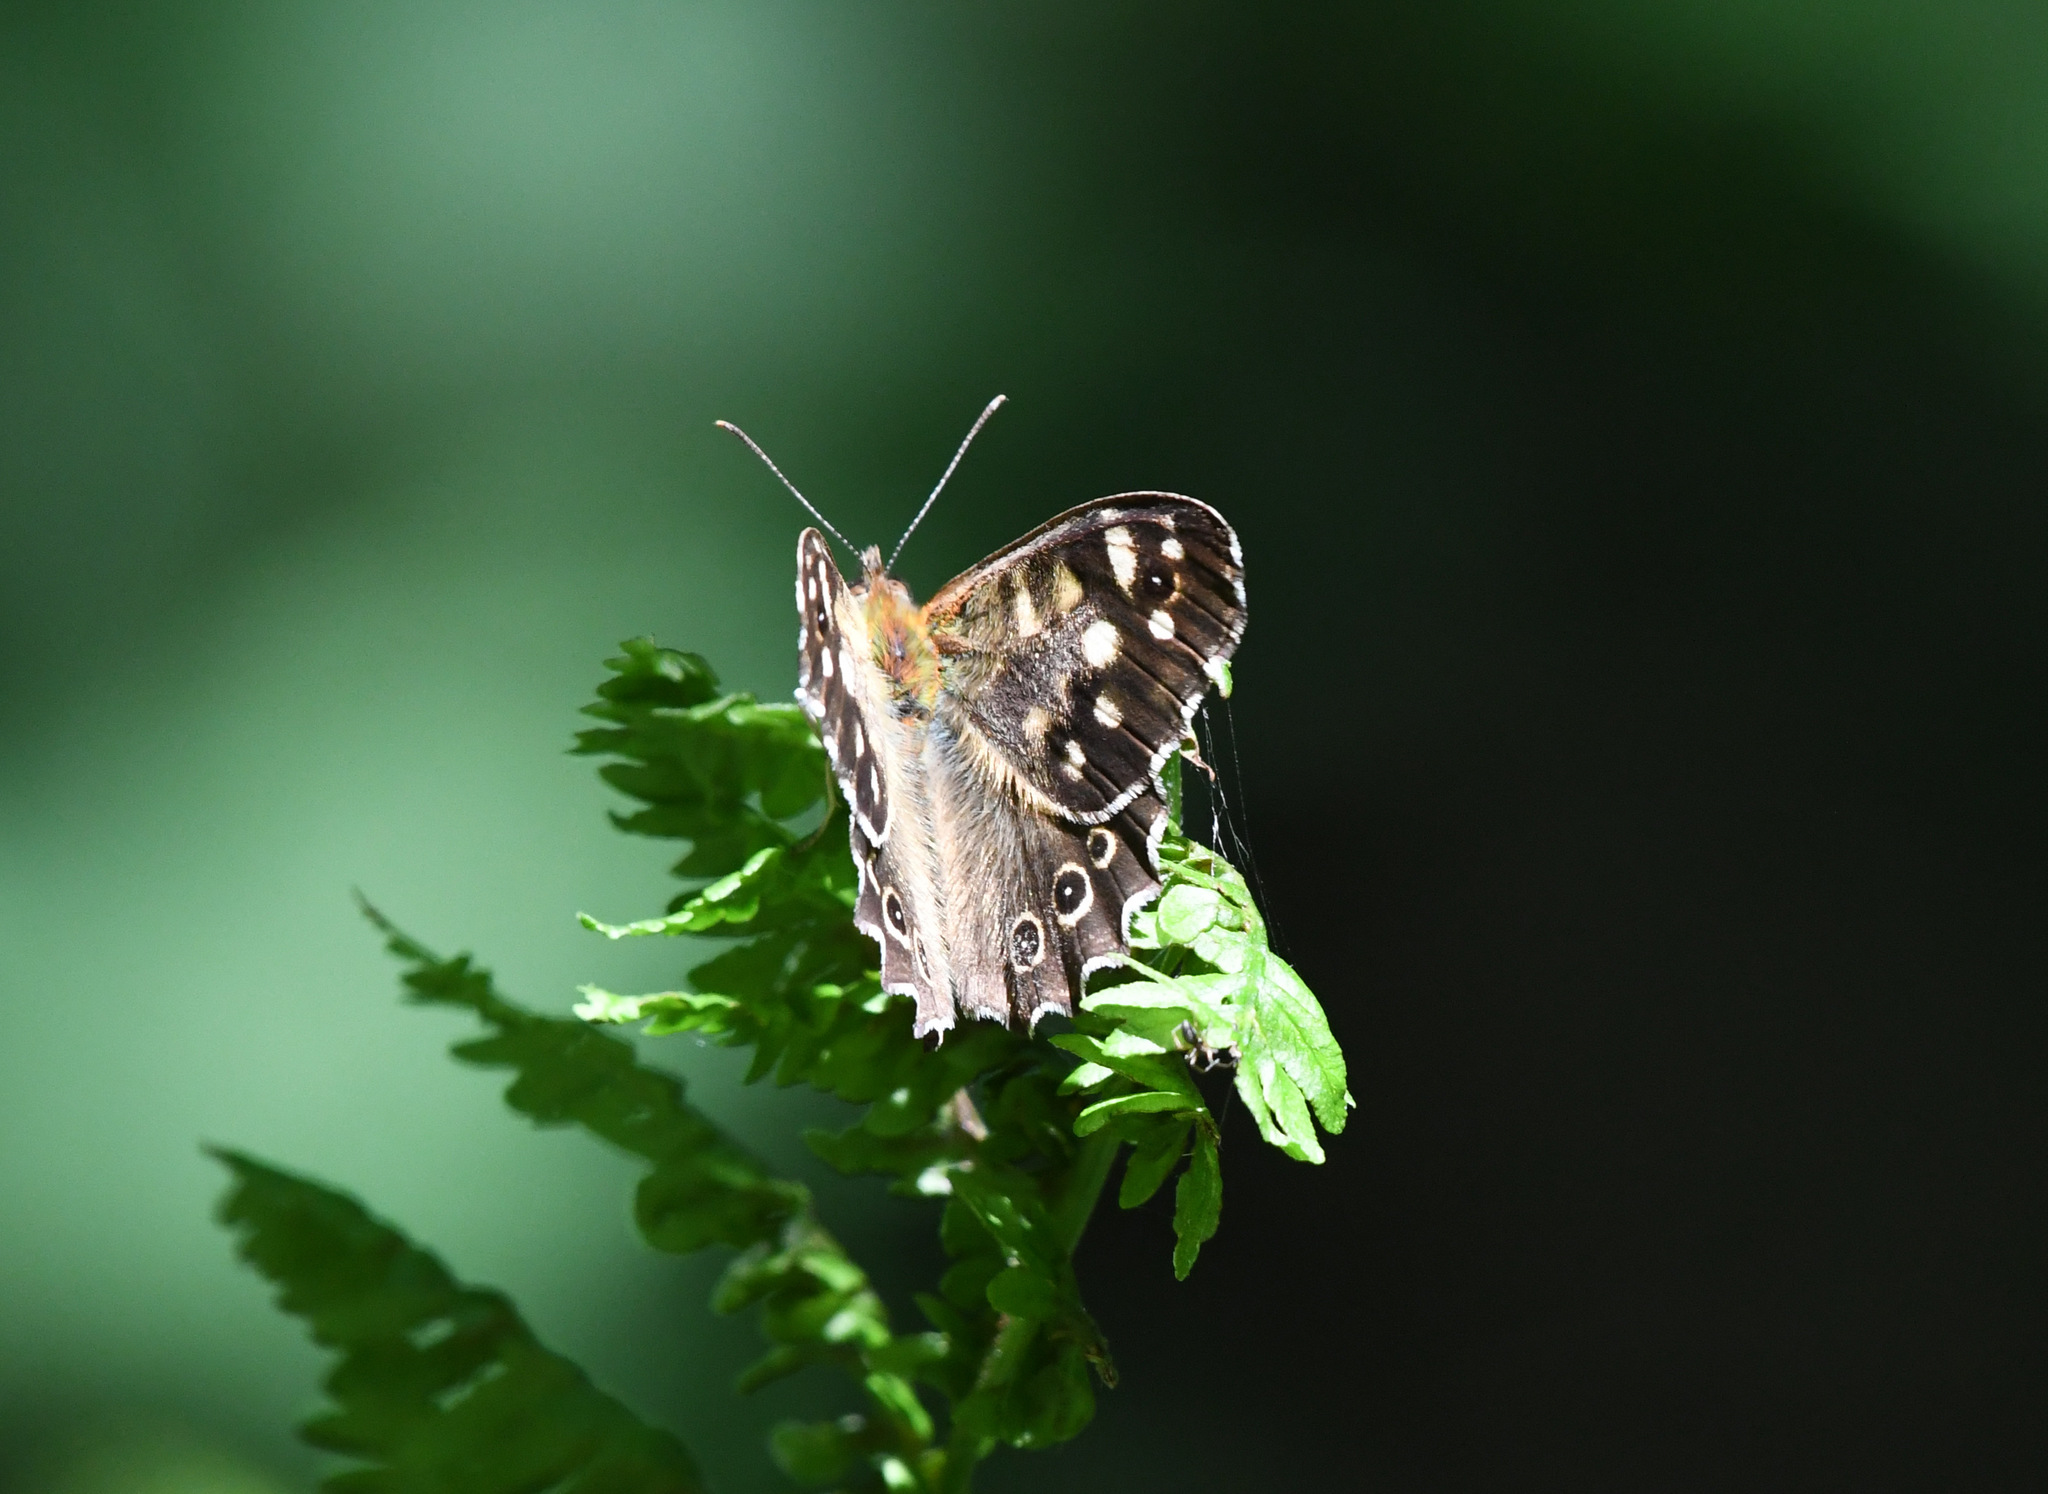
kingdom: Animalia
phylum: Arthropoda
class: Insecta
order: Lepidoptera
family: Nymphalidae
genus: Pararge
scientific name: Pararge aegeria
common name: Speckled wood
